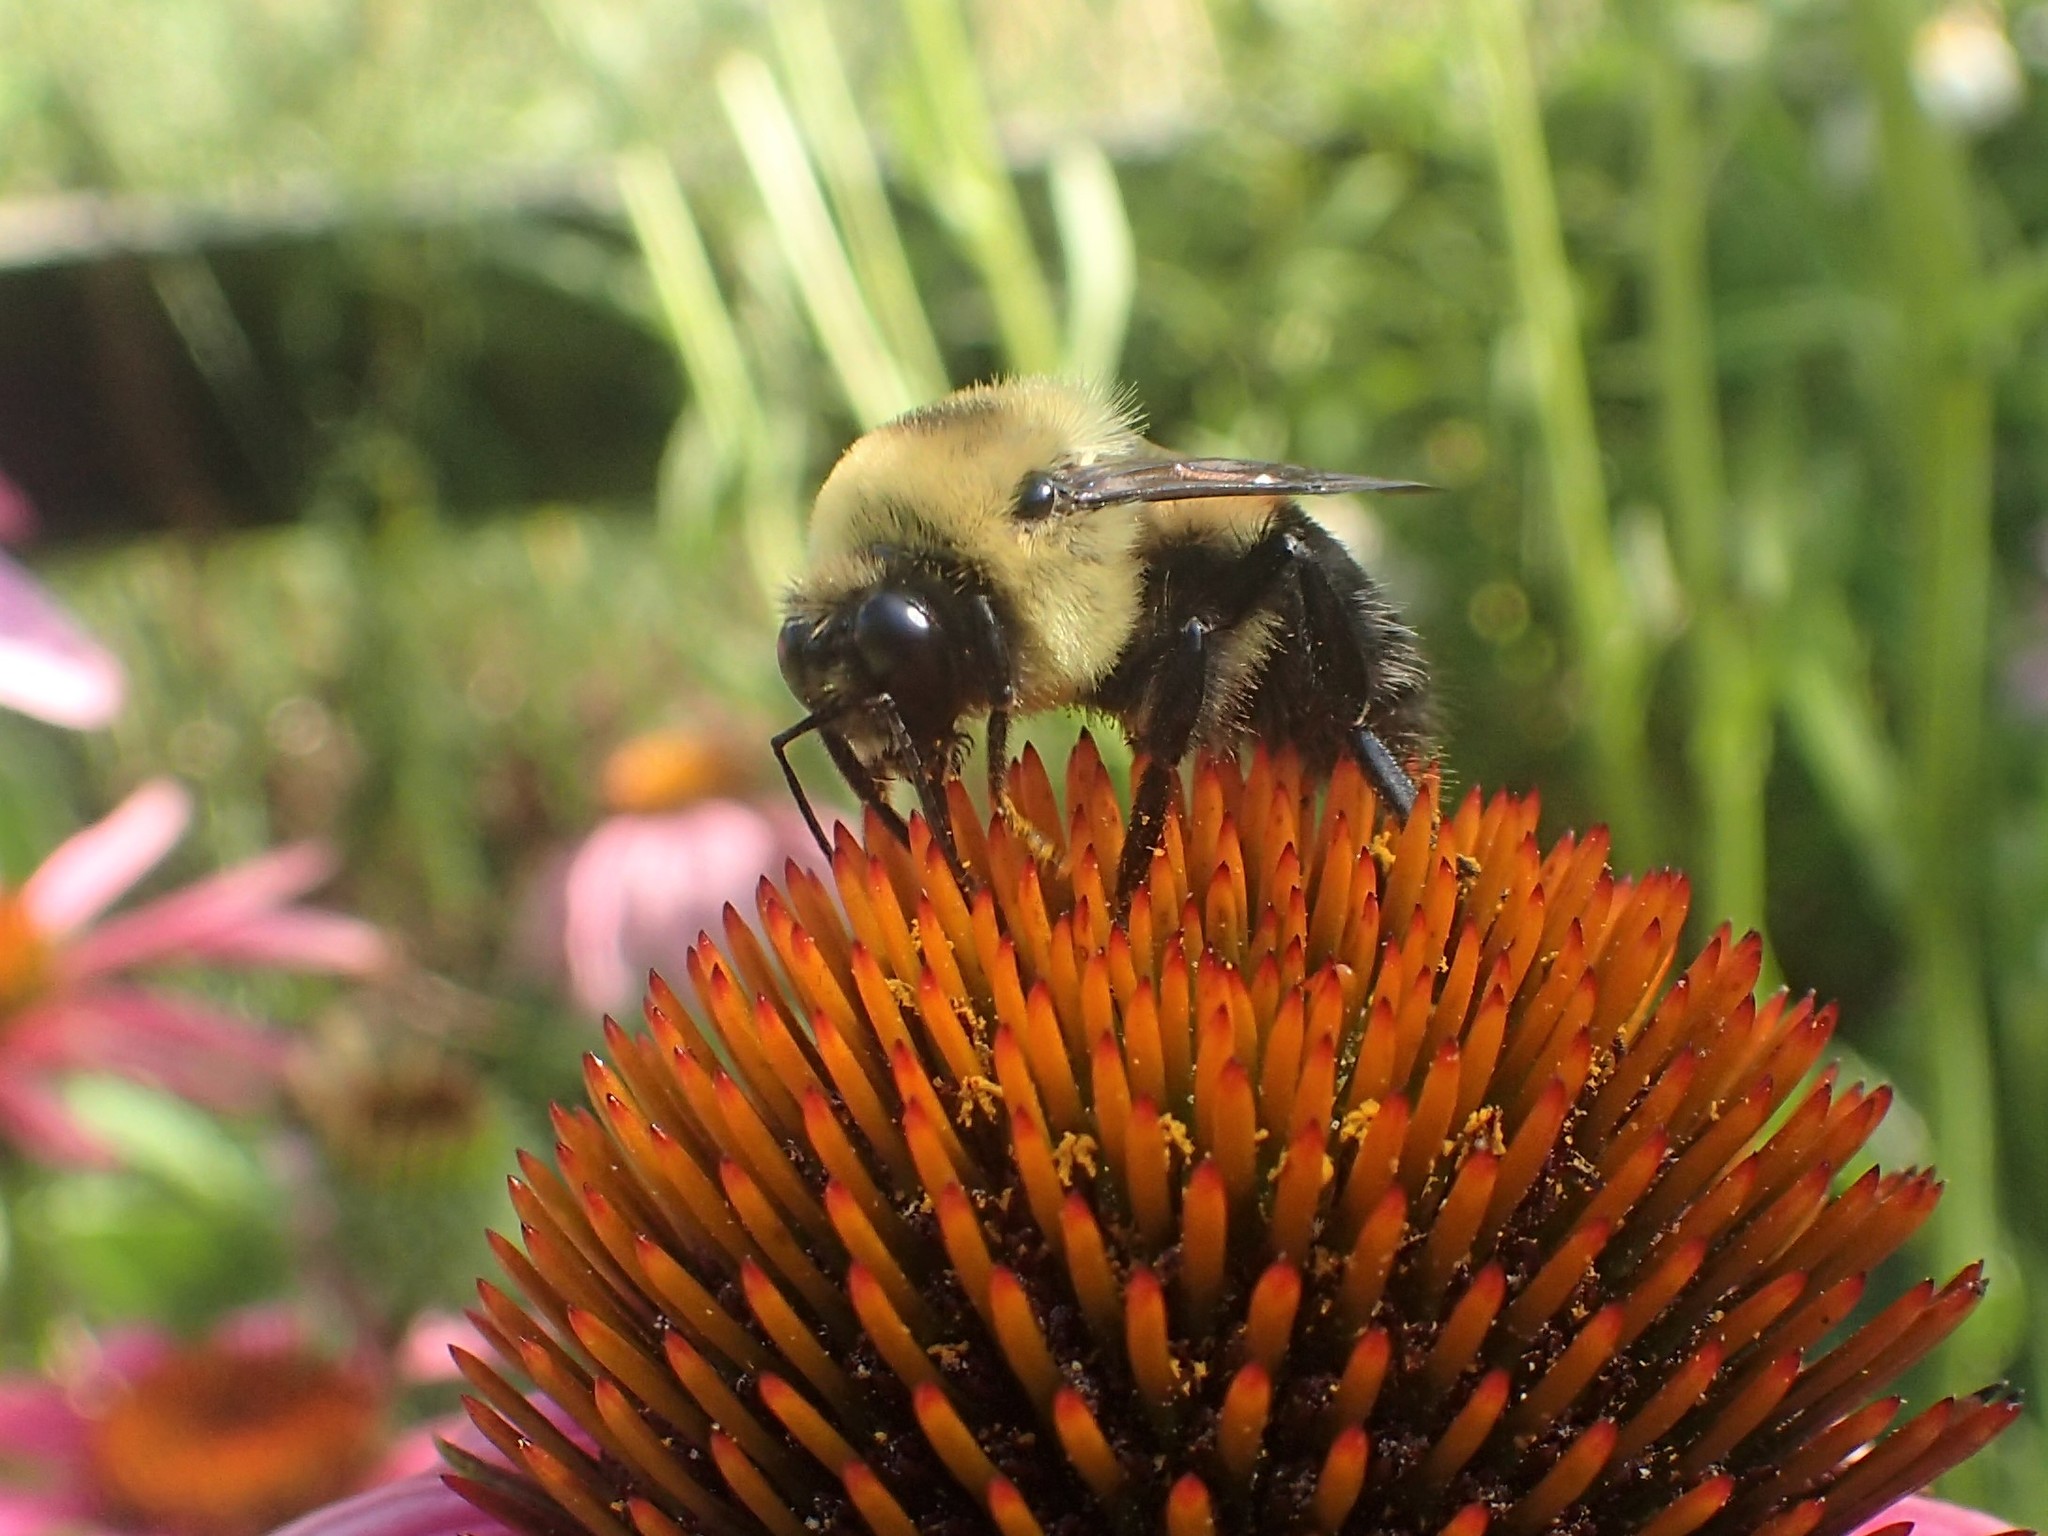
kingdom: Animalia
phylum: Arthropoda
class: Insecta
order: Hymenoptera
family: Apidae
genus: Bombus
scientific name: Bombus griseocollis
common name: Brown-belted bumble bee
